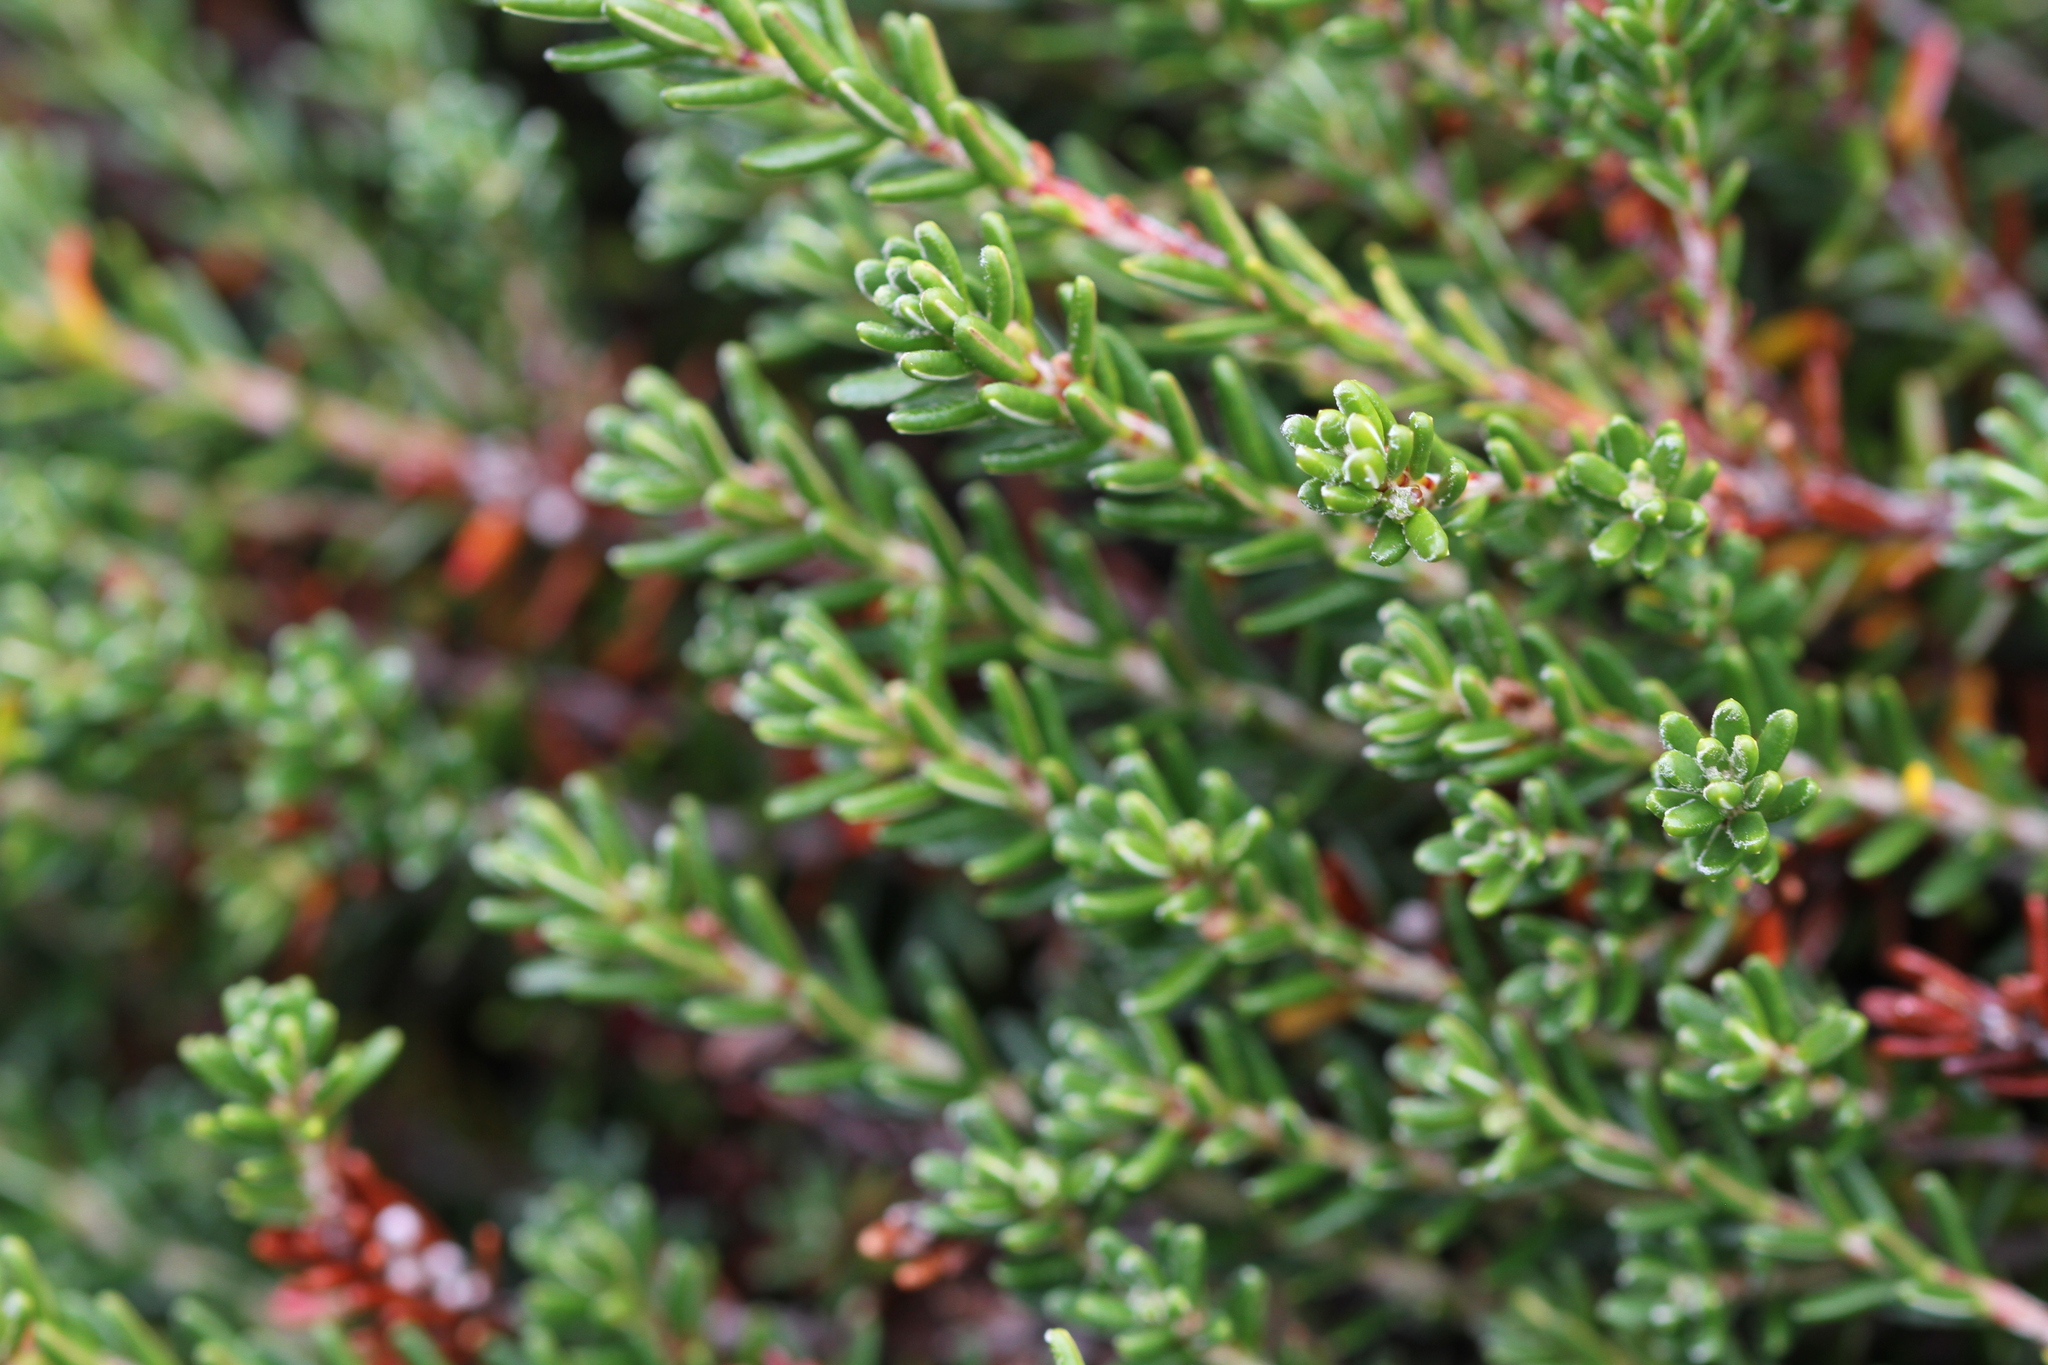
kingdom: Plantae
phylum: Tracheophyta
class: Magnoliopsida
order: Ericales
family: Ericaceae
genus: Empetrum
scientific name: Empetrum atropurpureum
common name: Purple crowberry
